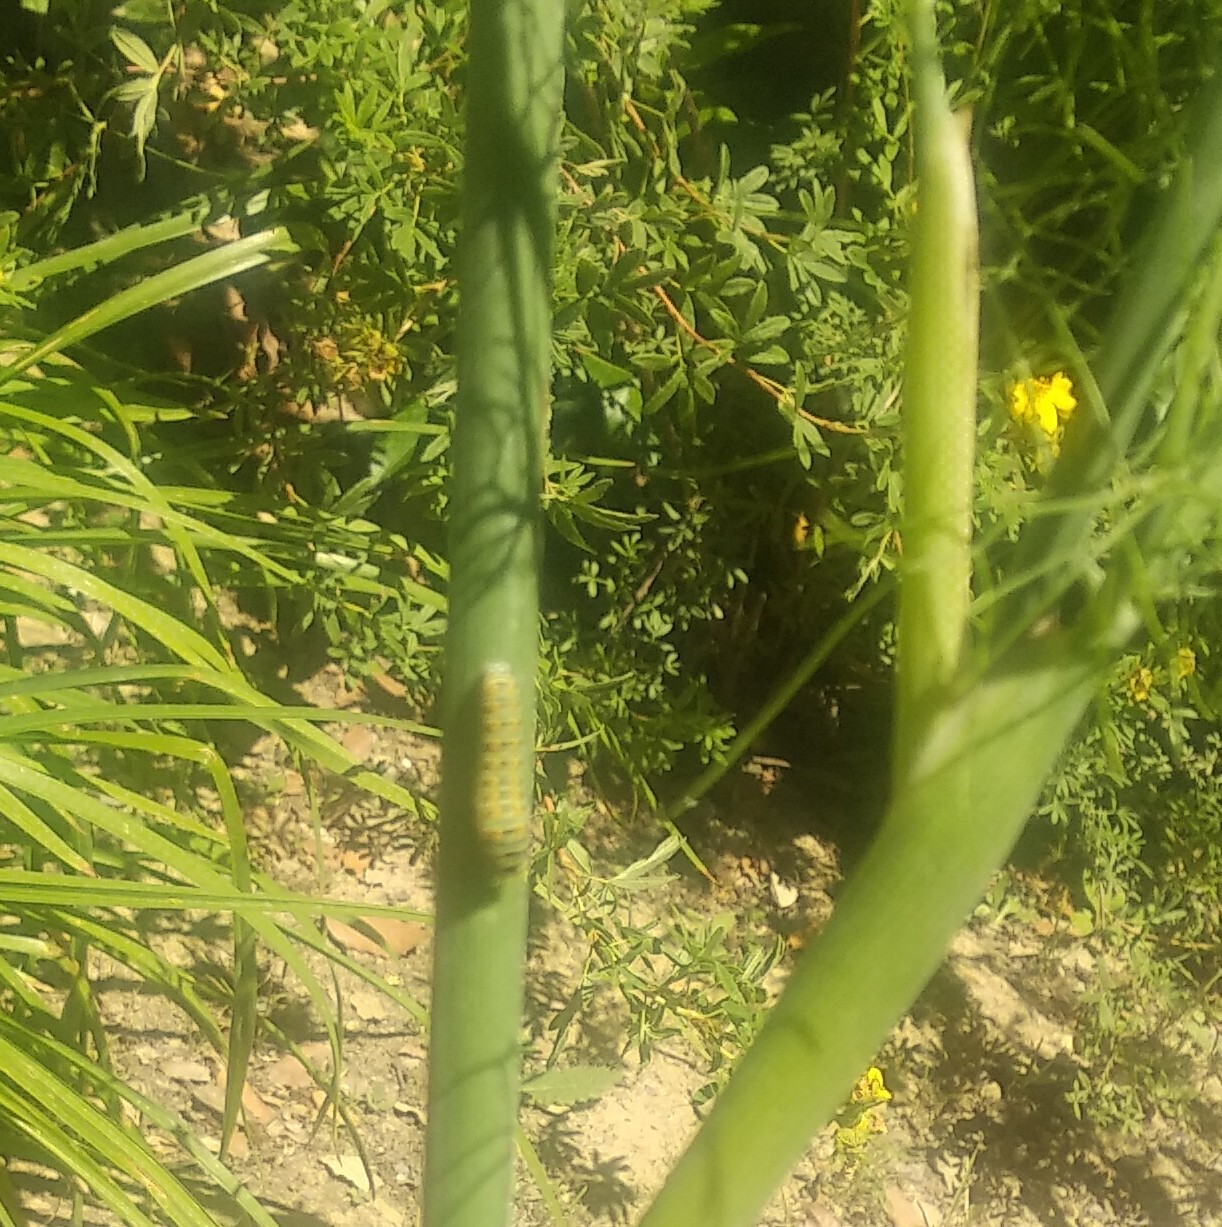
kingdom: Animalia
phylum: Arthropoda
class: Insecta
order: Lepidoptera
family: Papilionidae
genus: Papilio
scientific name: Papilio machaon
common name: Swallowtail
